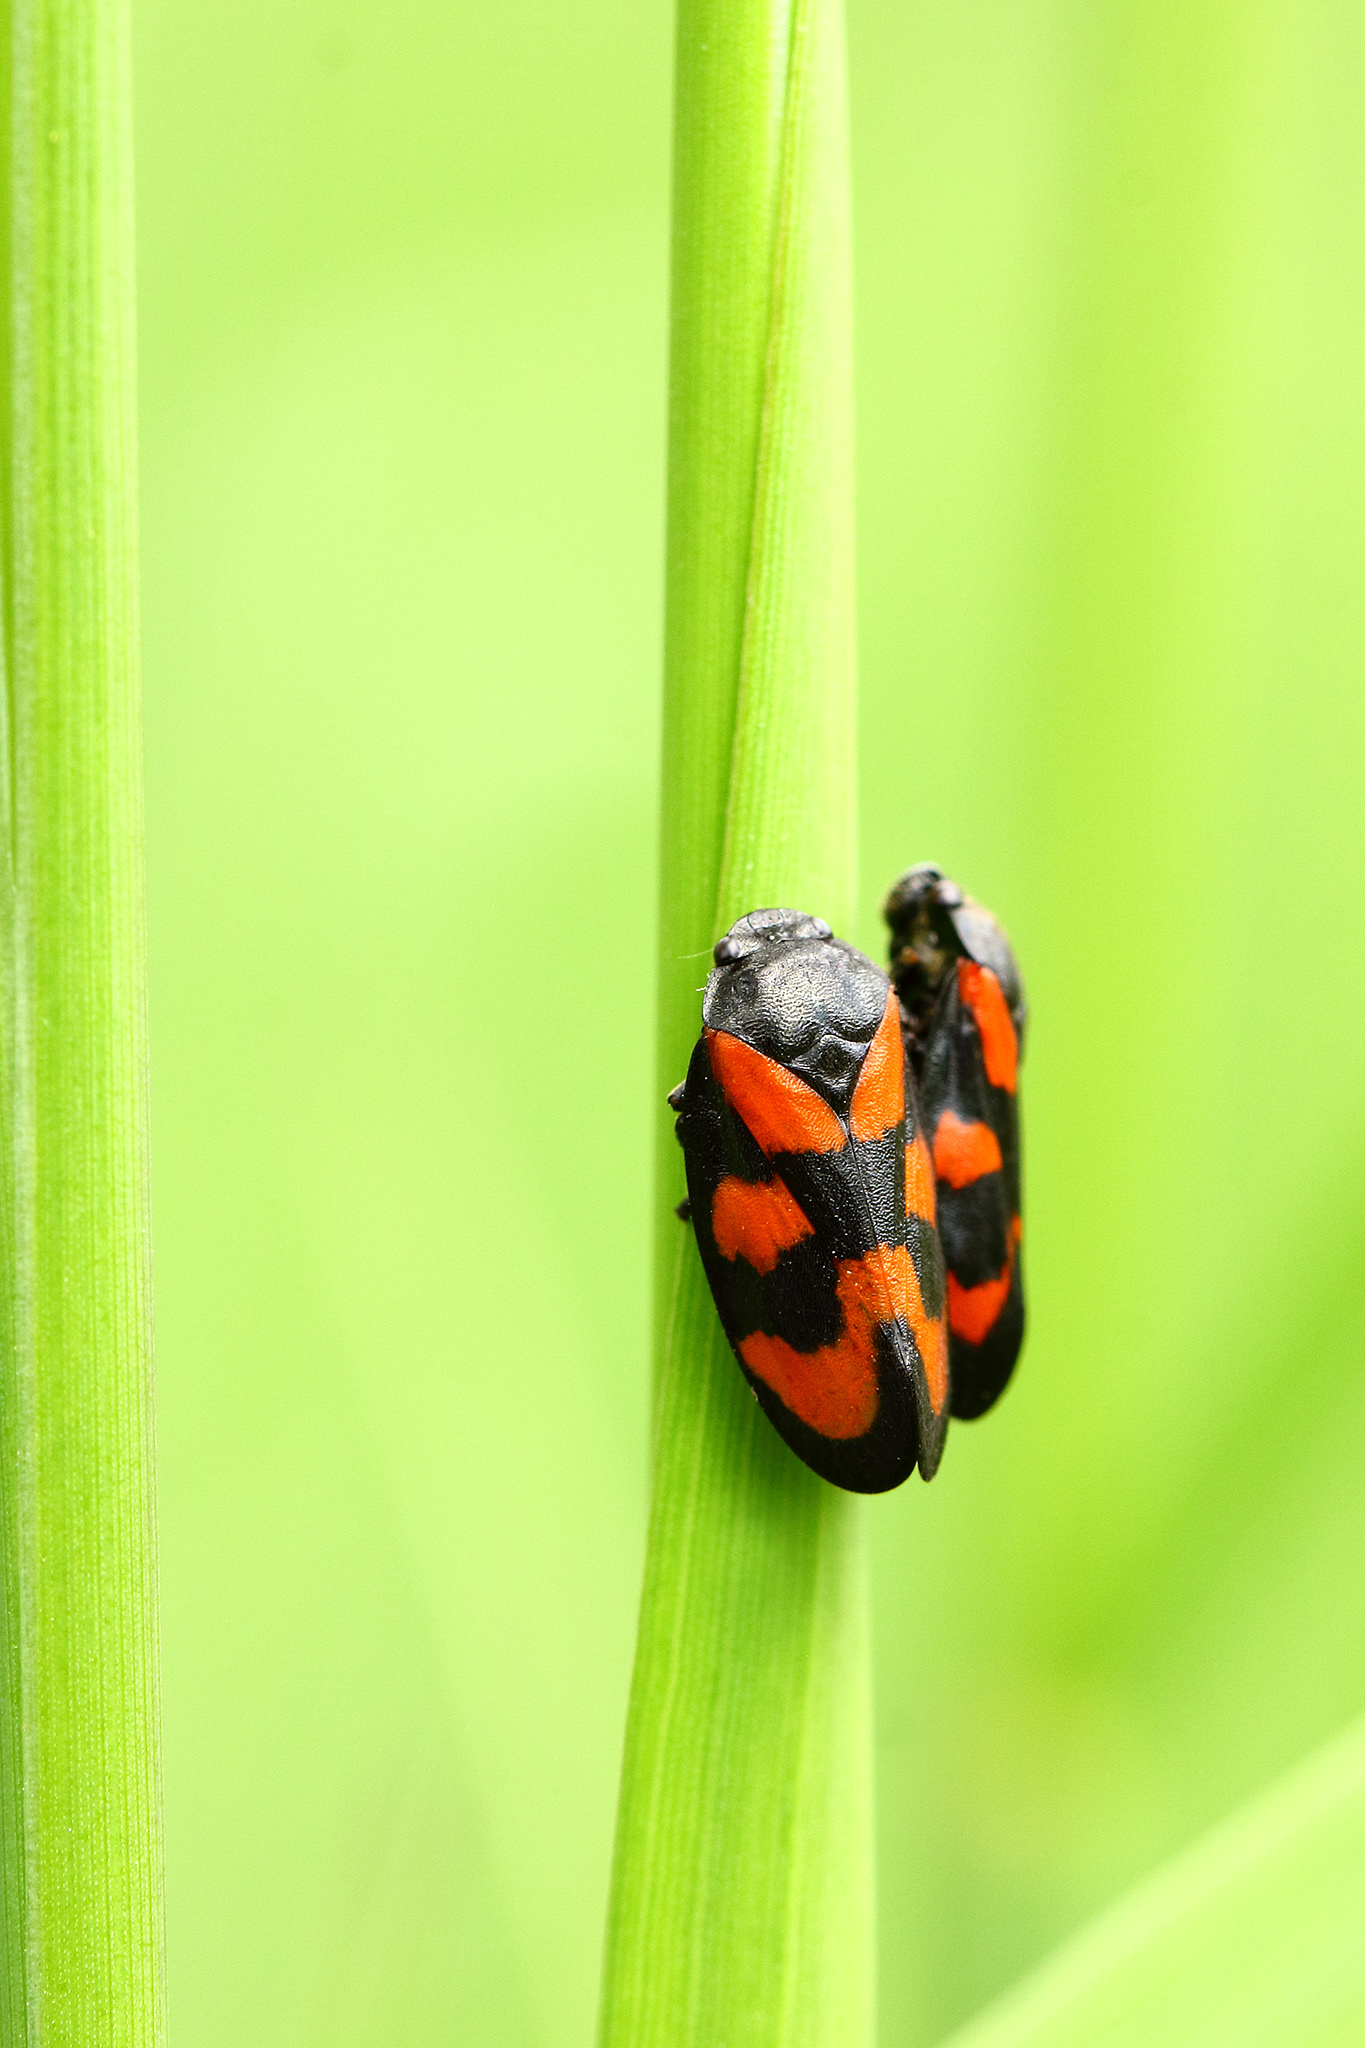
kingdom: Animalia
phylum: Arthropoda
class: Insecta
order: Hemiptera
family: Cercopidae
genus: Cercopis
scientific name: Cercopis vulnerata
